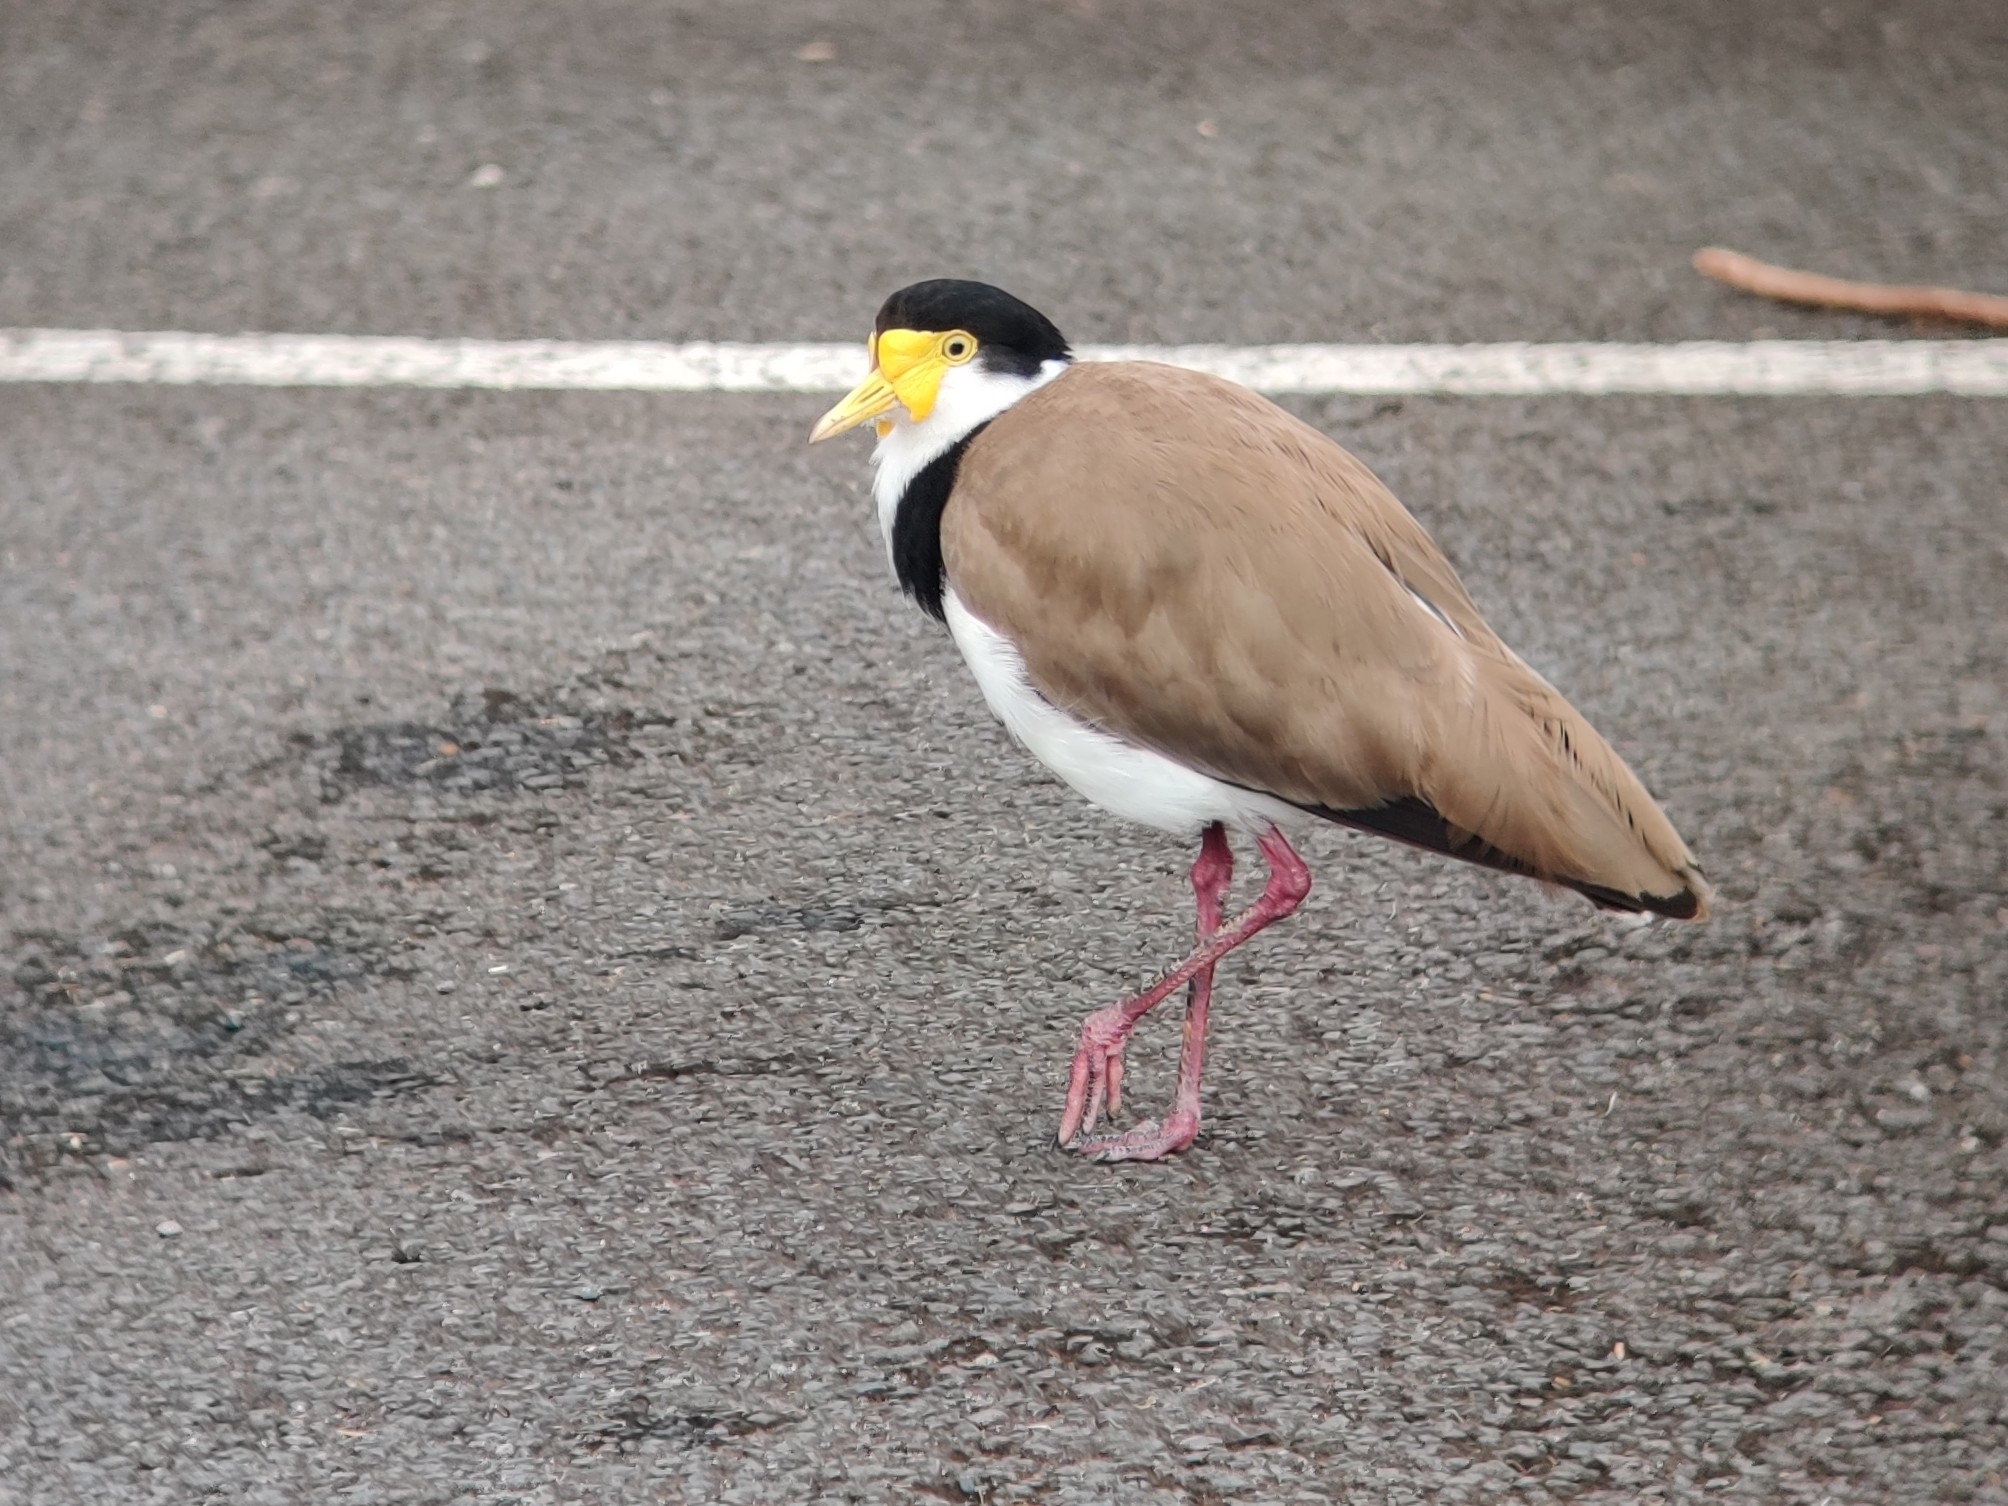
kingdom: Animalia
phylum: Chordata
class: Aves
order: Charadriiformes
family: Charadriidae
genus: Vanellus
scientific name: Vanellus miles
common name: Masked lapwing
